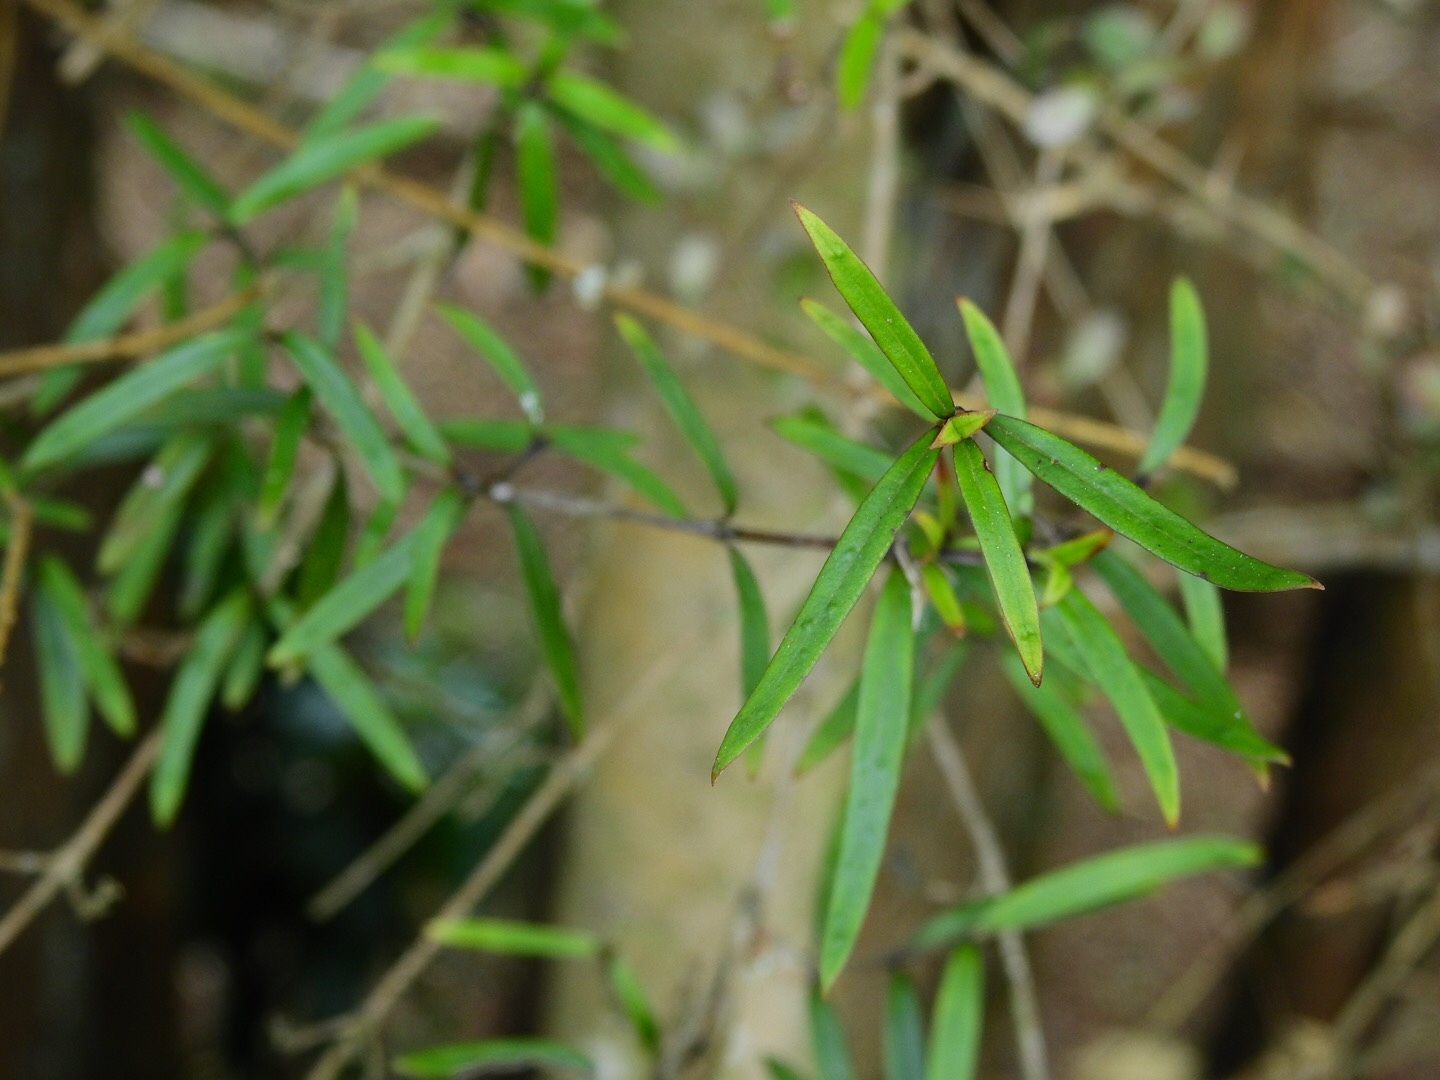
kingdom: Plantae
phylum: Tracheophyta
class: Magnoliopsida
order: Gentianales
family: Rubiaceae
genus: Coprosma
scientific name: Coprosma linariifolia
